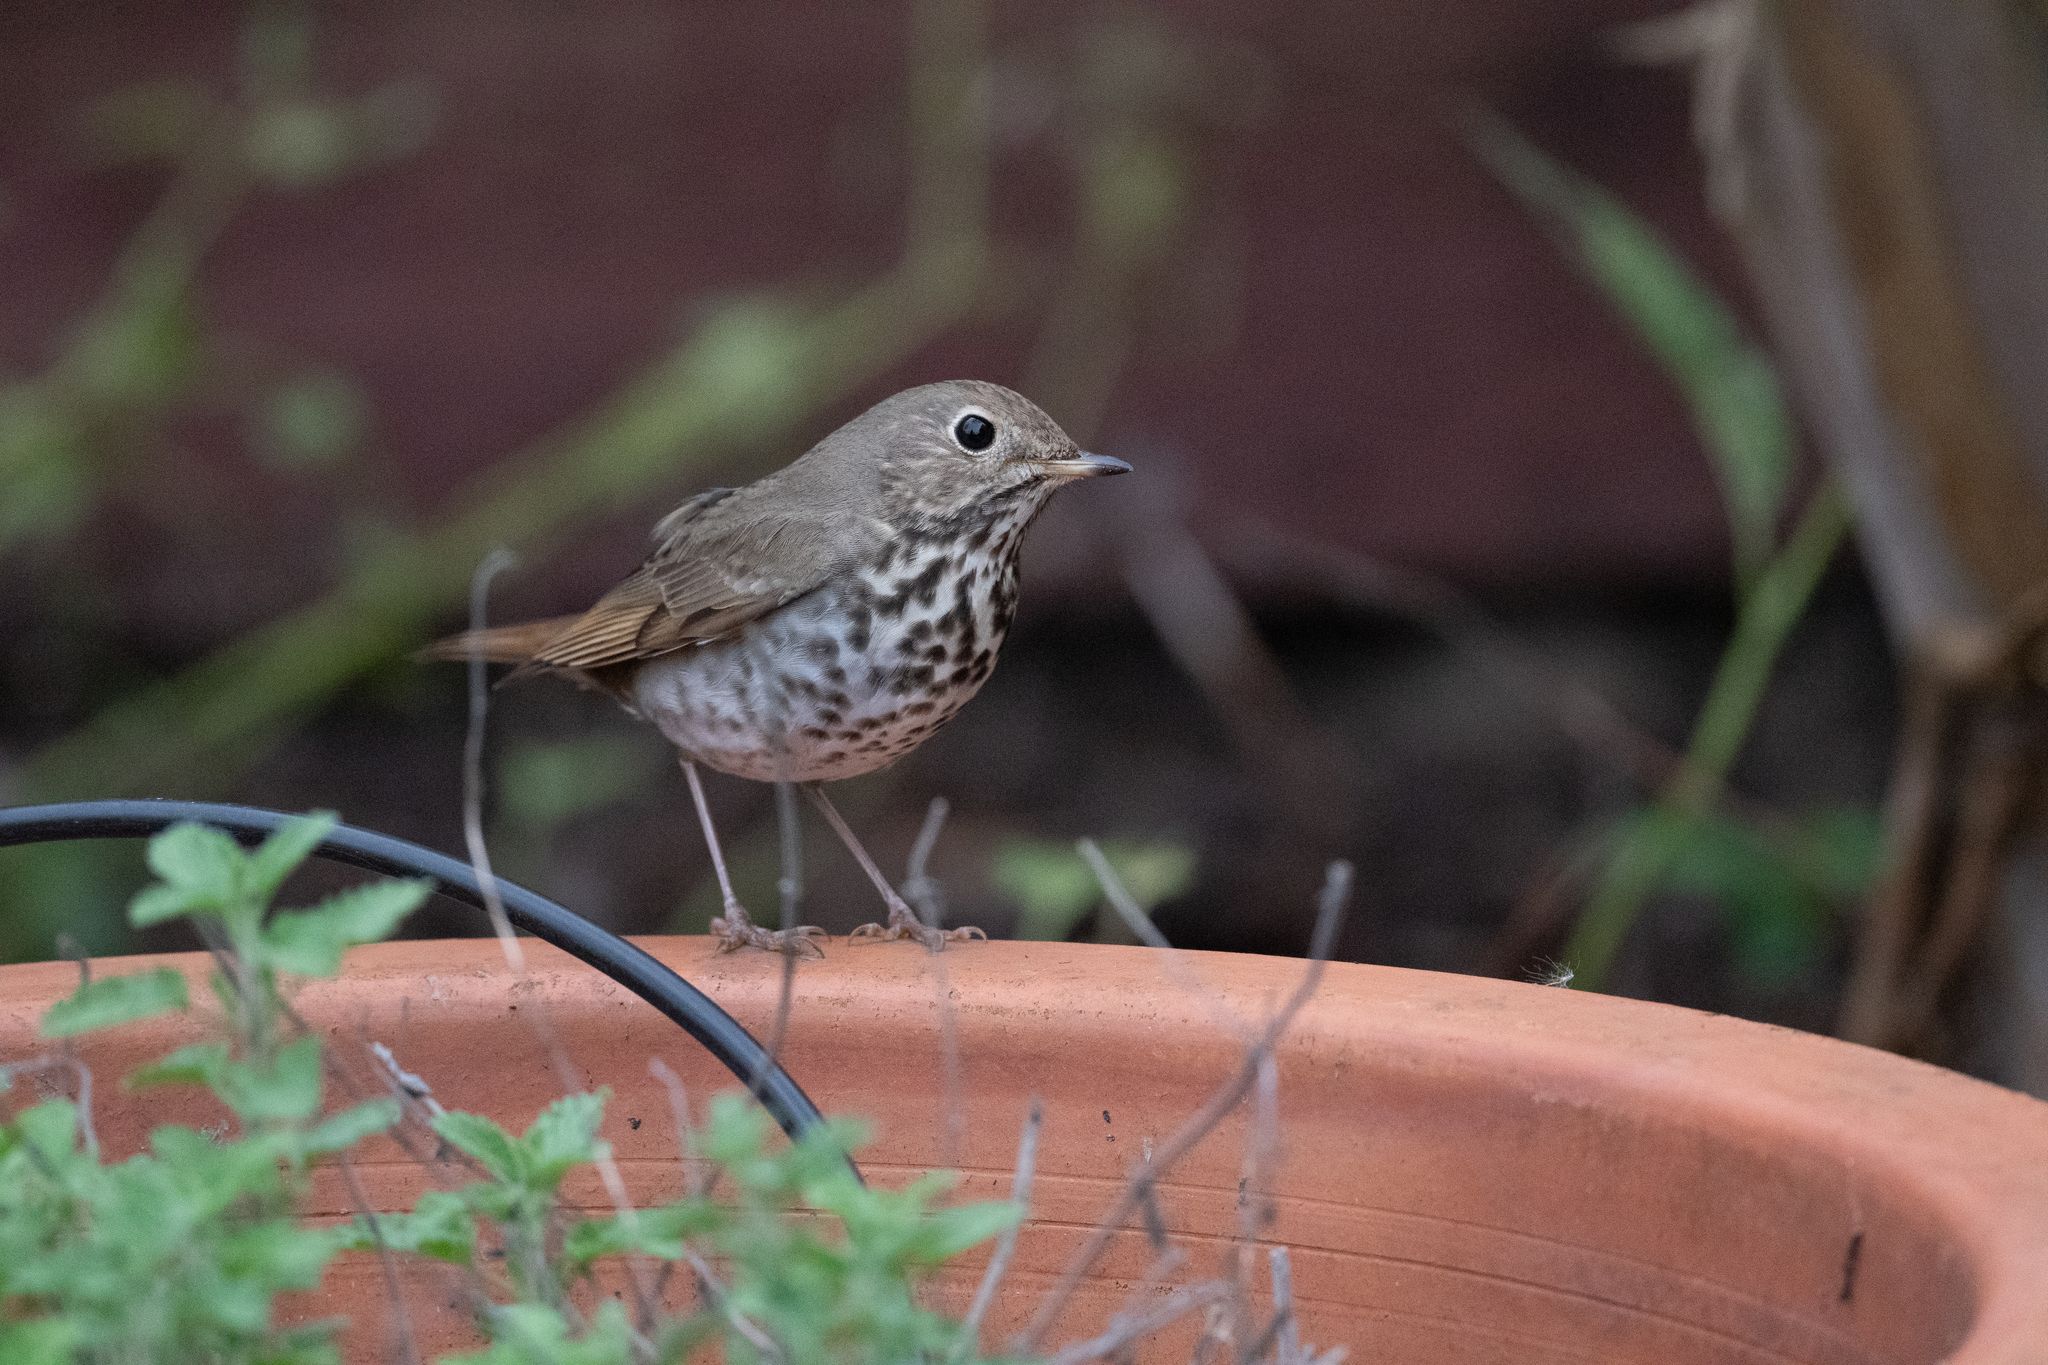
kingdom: Animalia
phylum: Chordata
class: Aves
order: Passeriformes
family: Turdidae
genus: Catharus
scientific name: Catharus guttatus
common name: Hermit thrush
